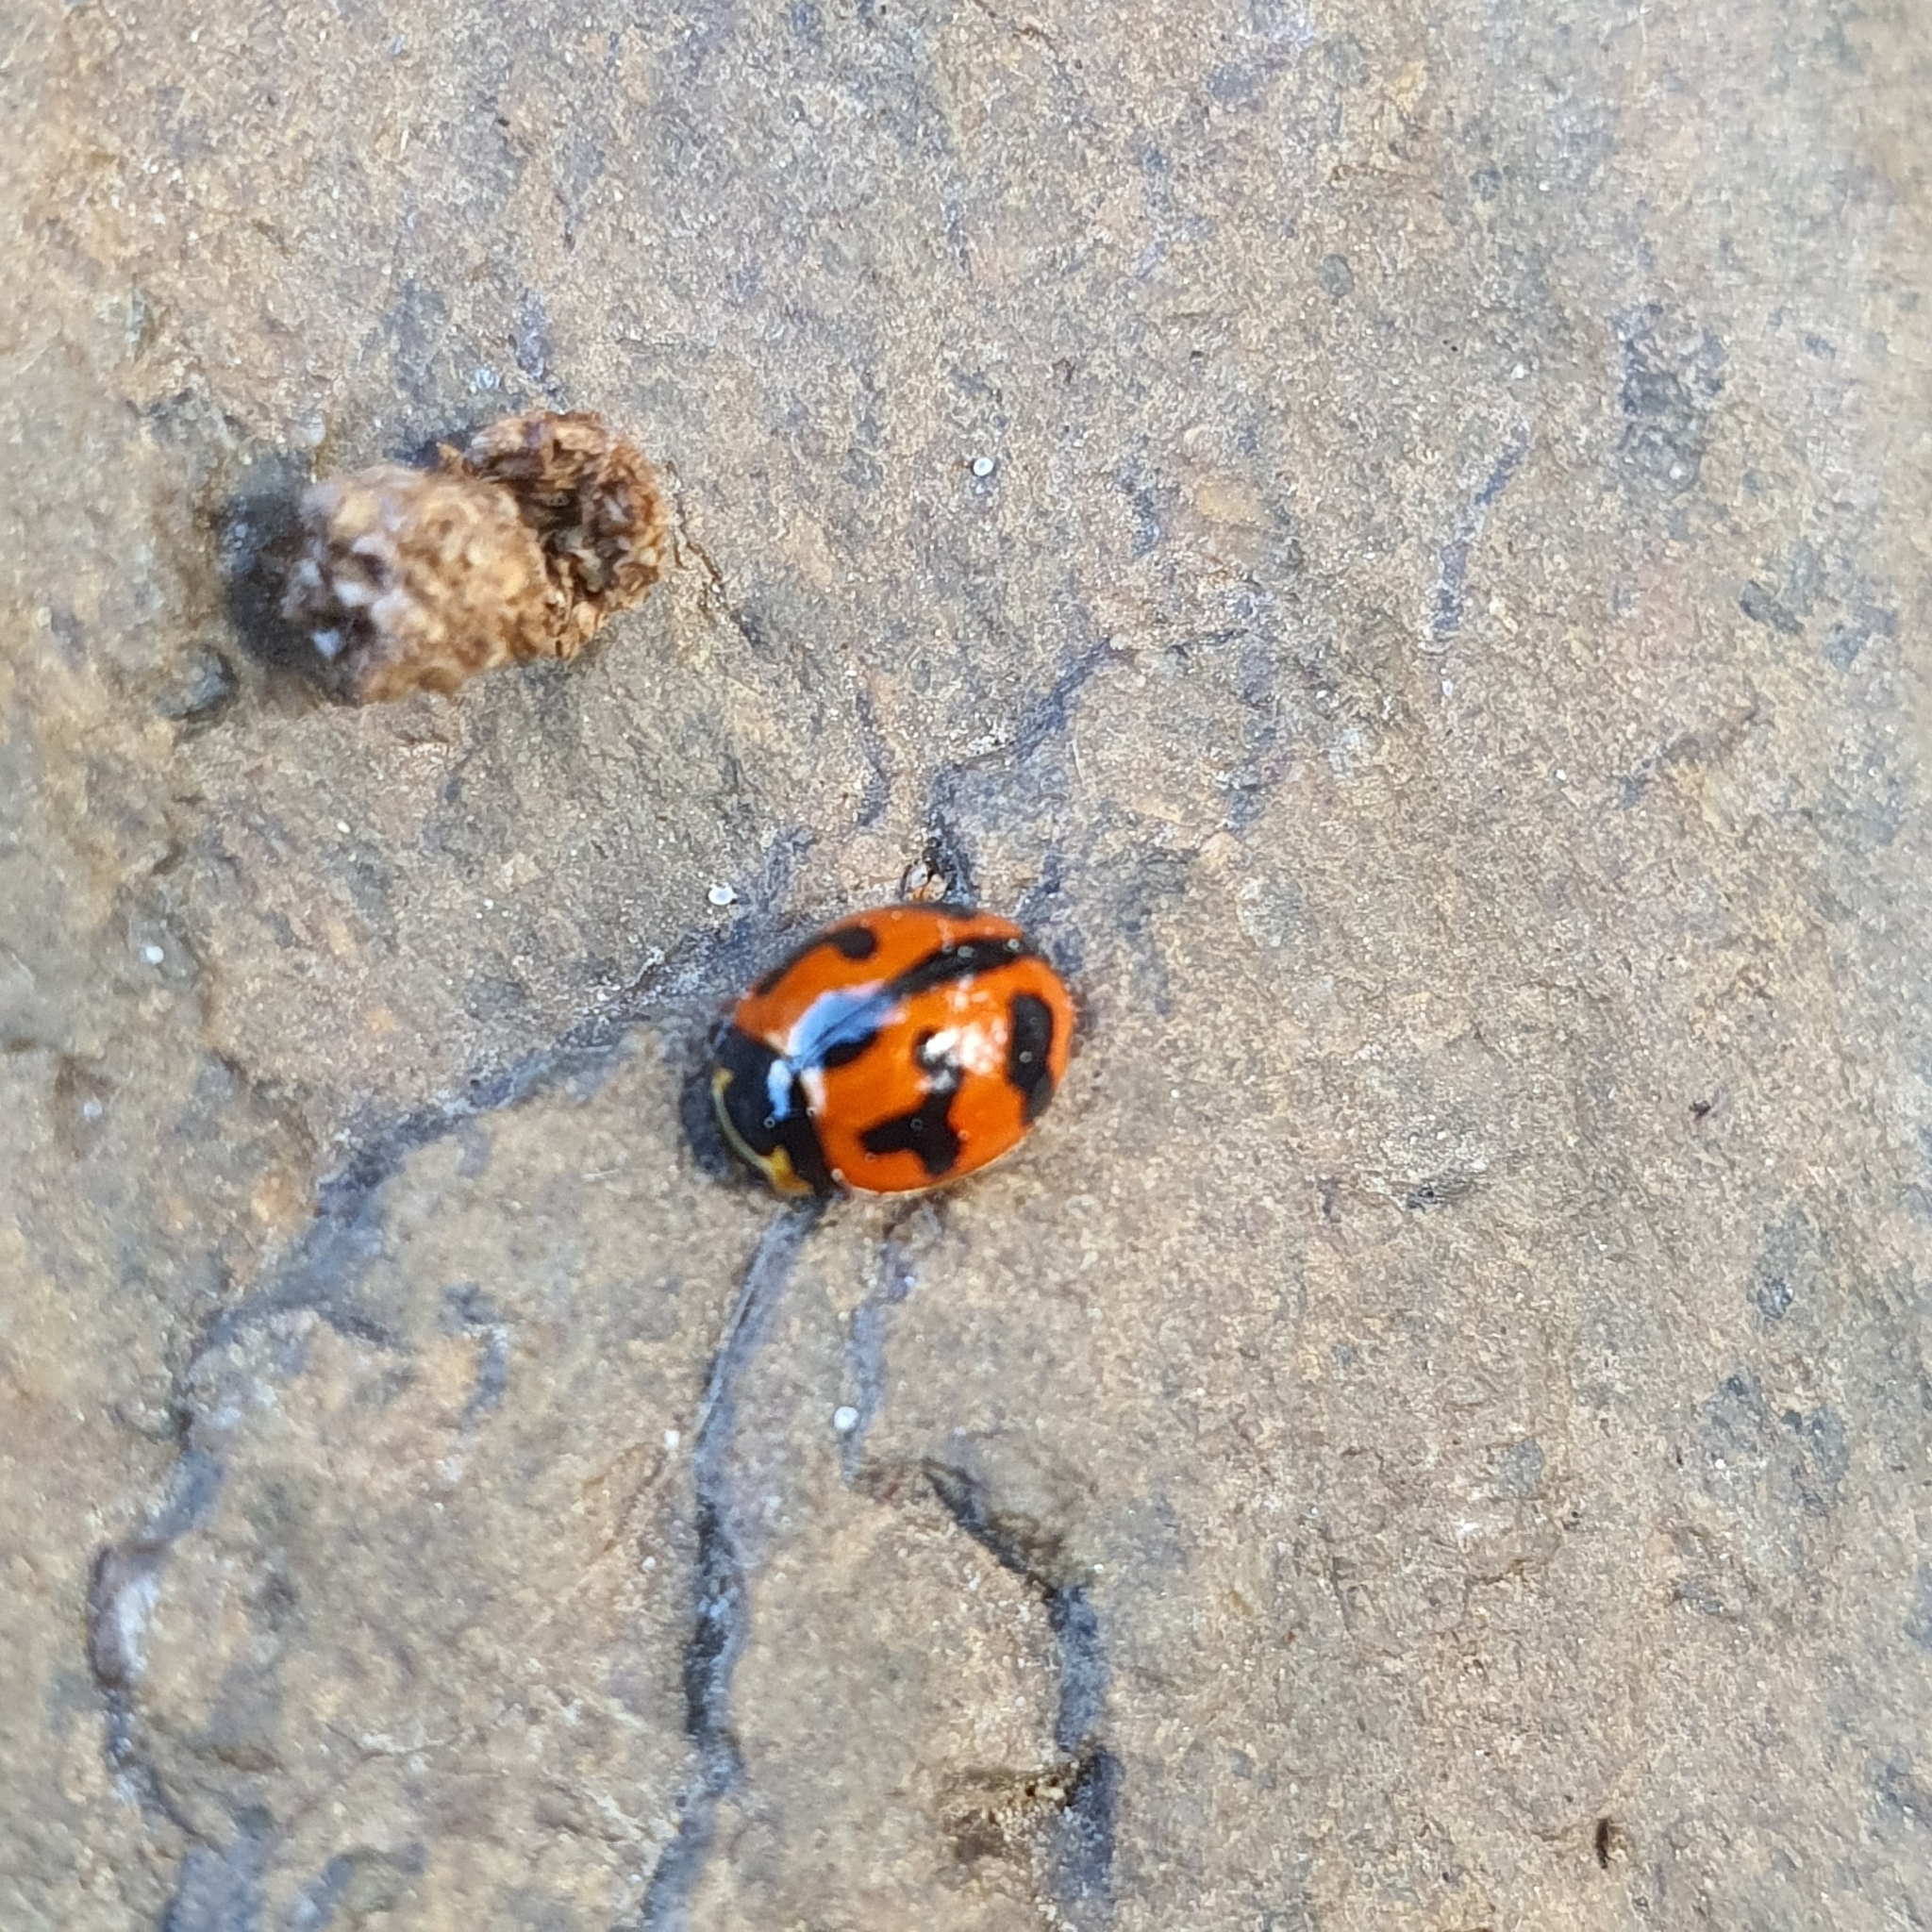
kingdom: Animalia
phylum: Arthropoda
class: Insecta
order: Coleoptera
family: Coccinellidae
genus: Coccinella
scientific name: Coccinella transversalis
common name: Transverse lady beetle
